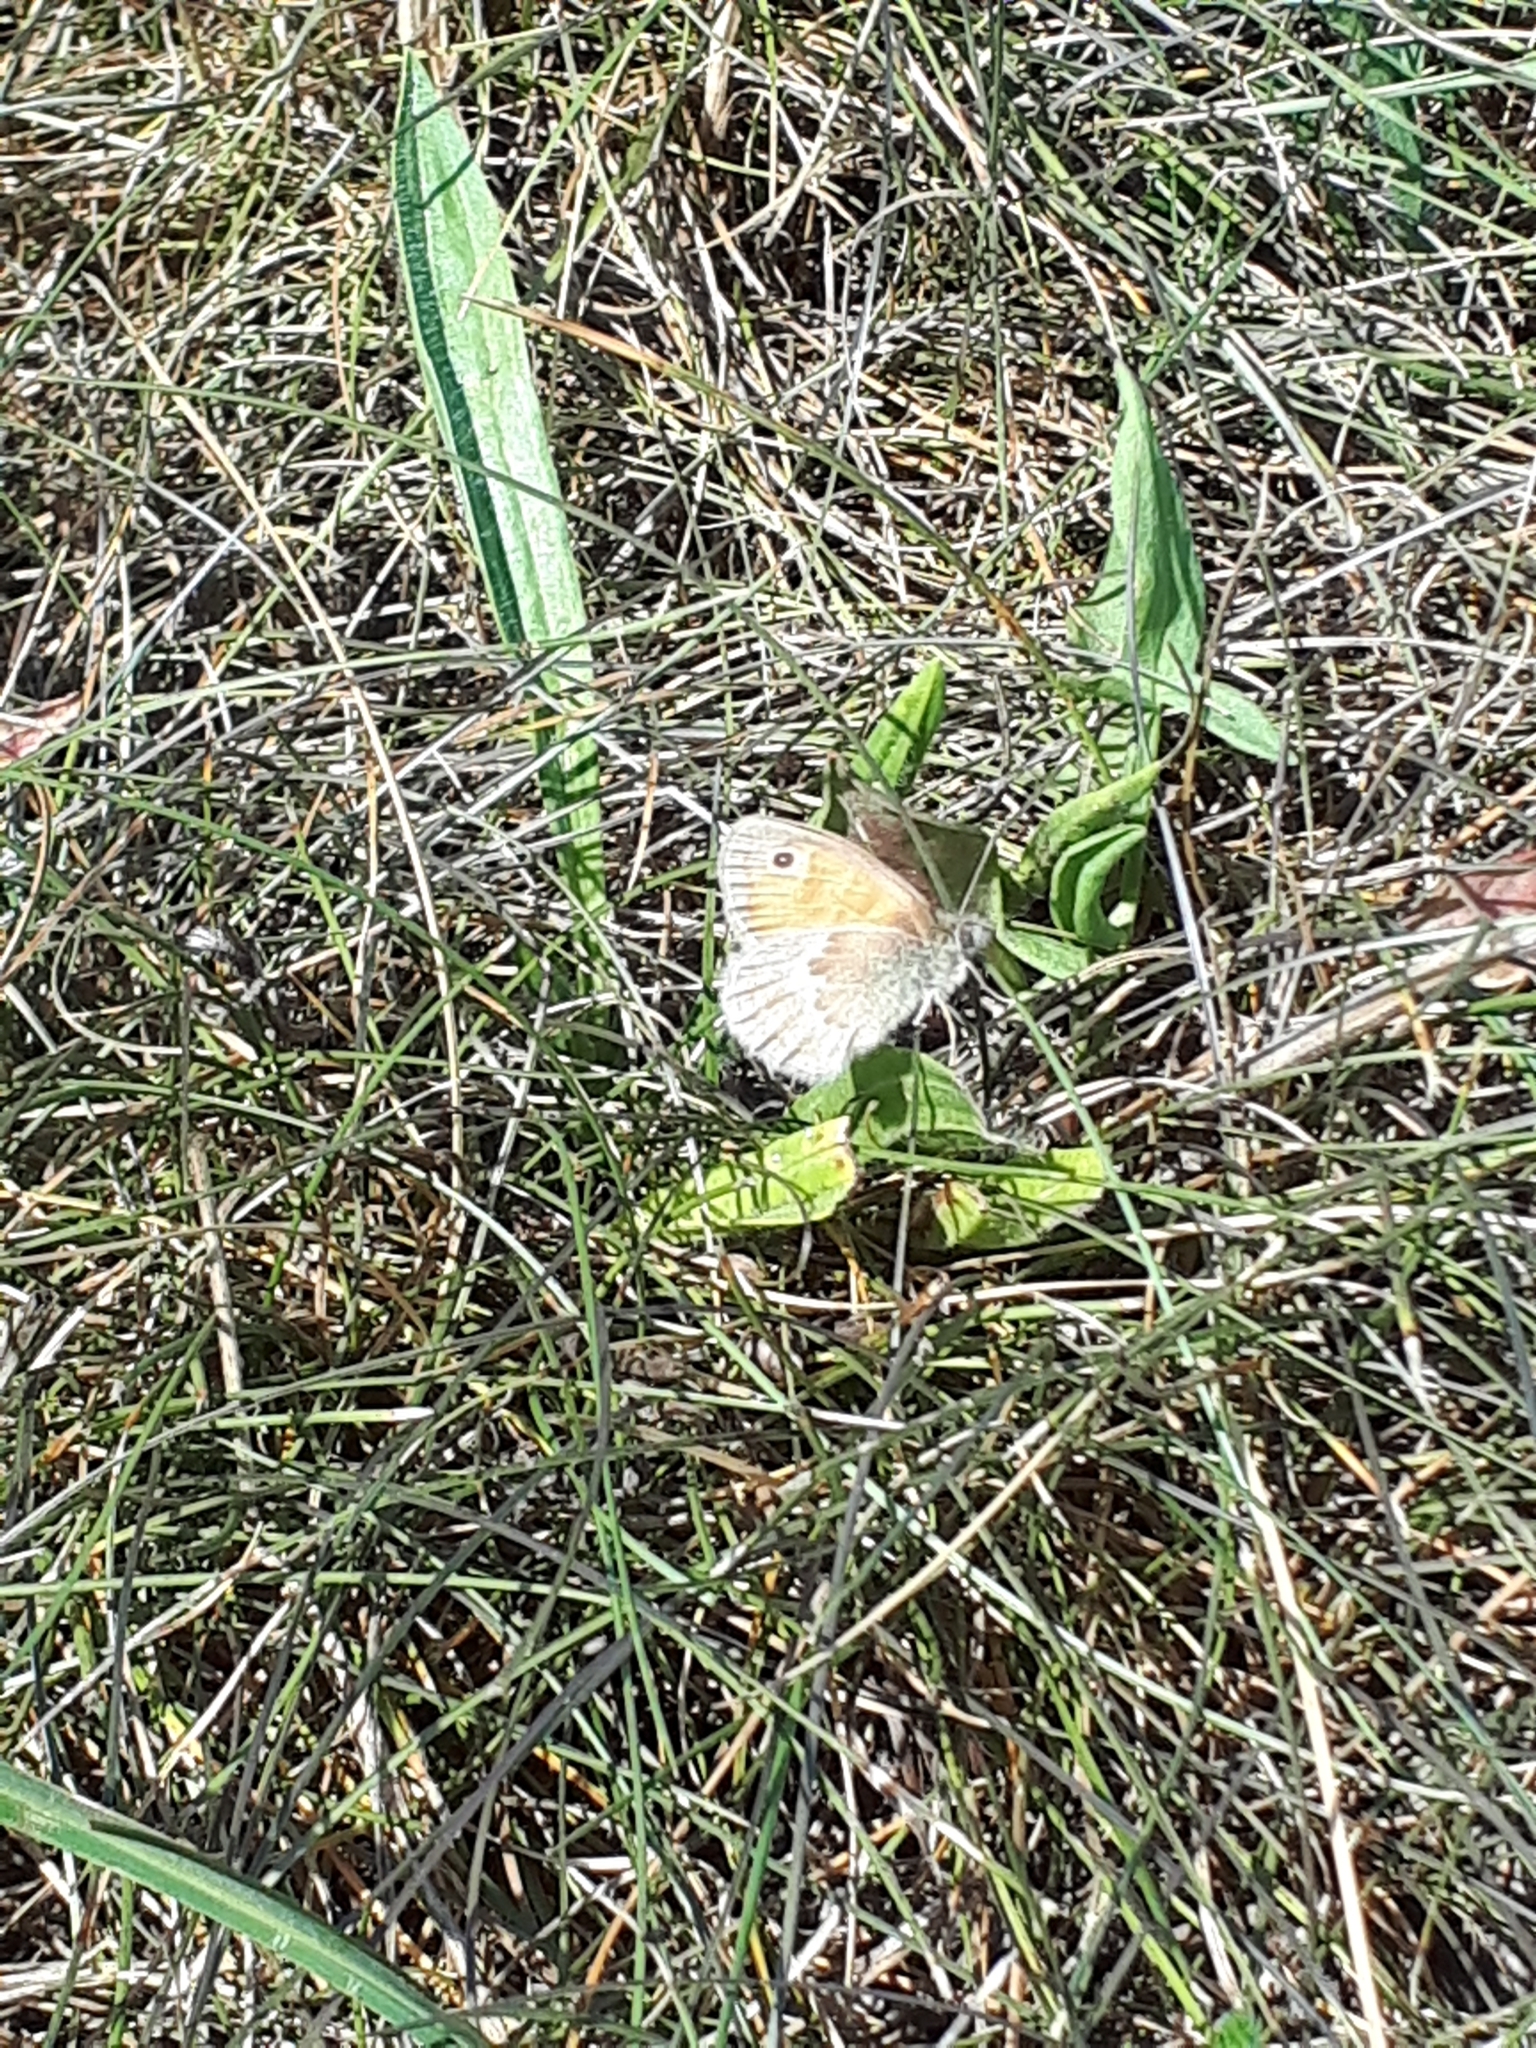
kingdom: Animalia
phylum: Arthropoda
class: Insecta
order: Lepidoptera
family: Nymphalidae
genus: Coenonympha
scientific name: Coenonympha pamphilus
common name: Small heath
